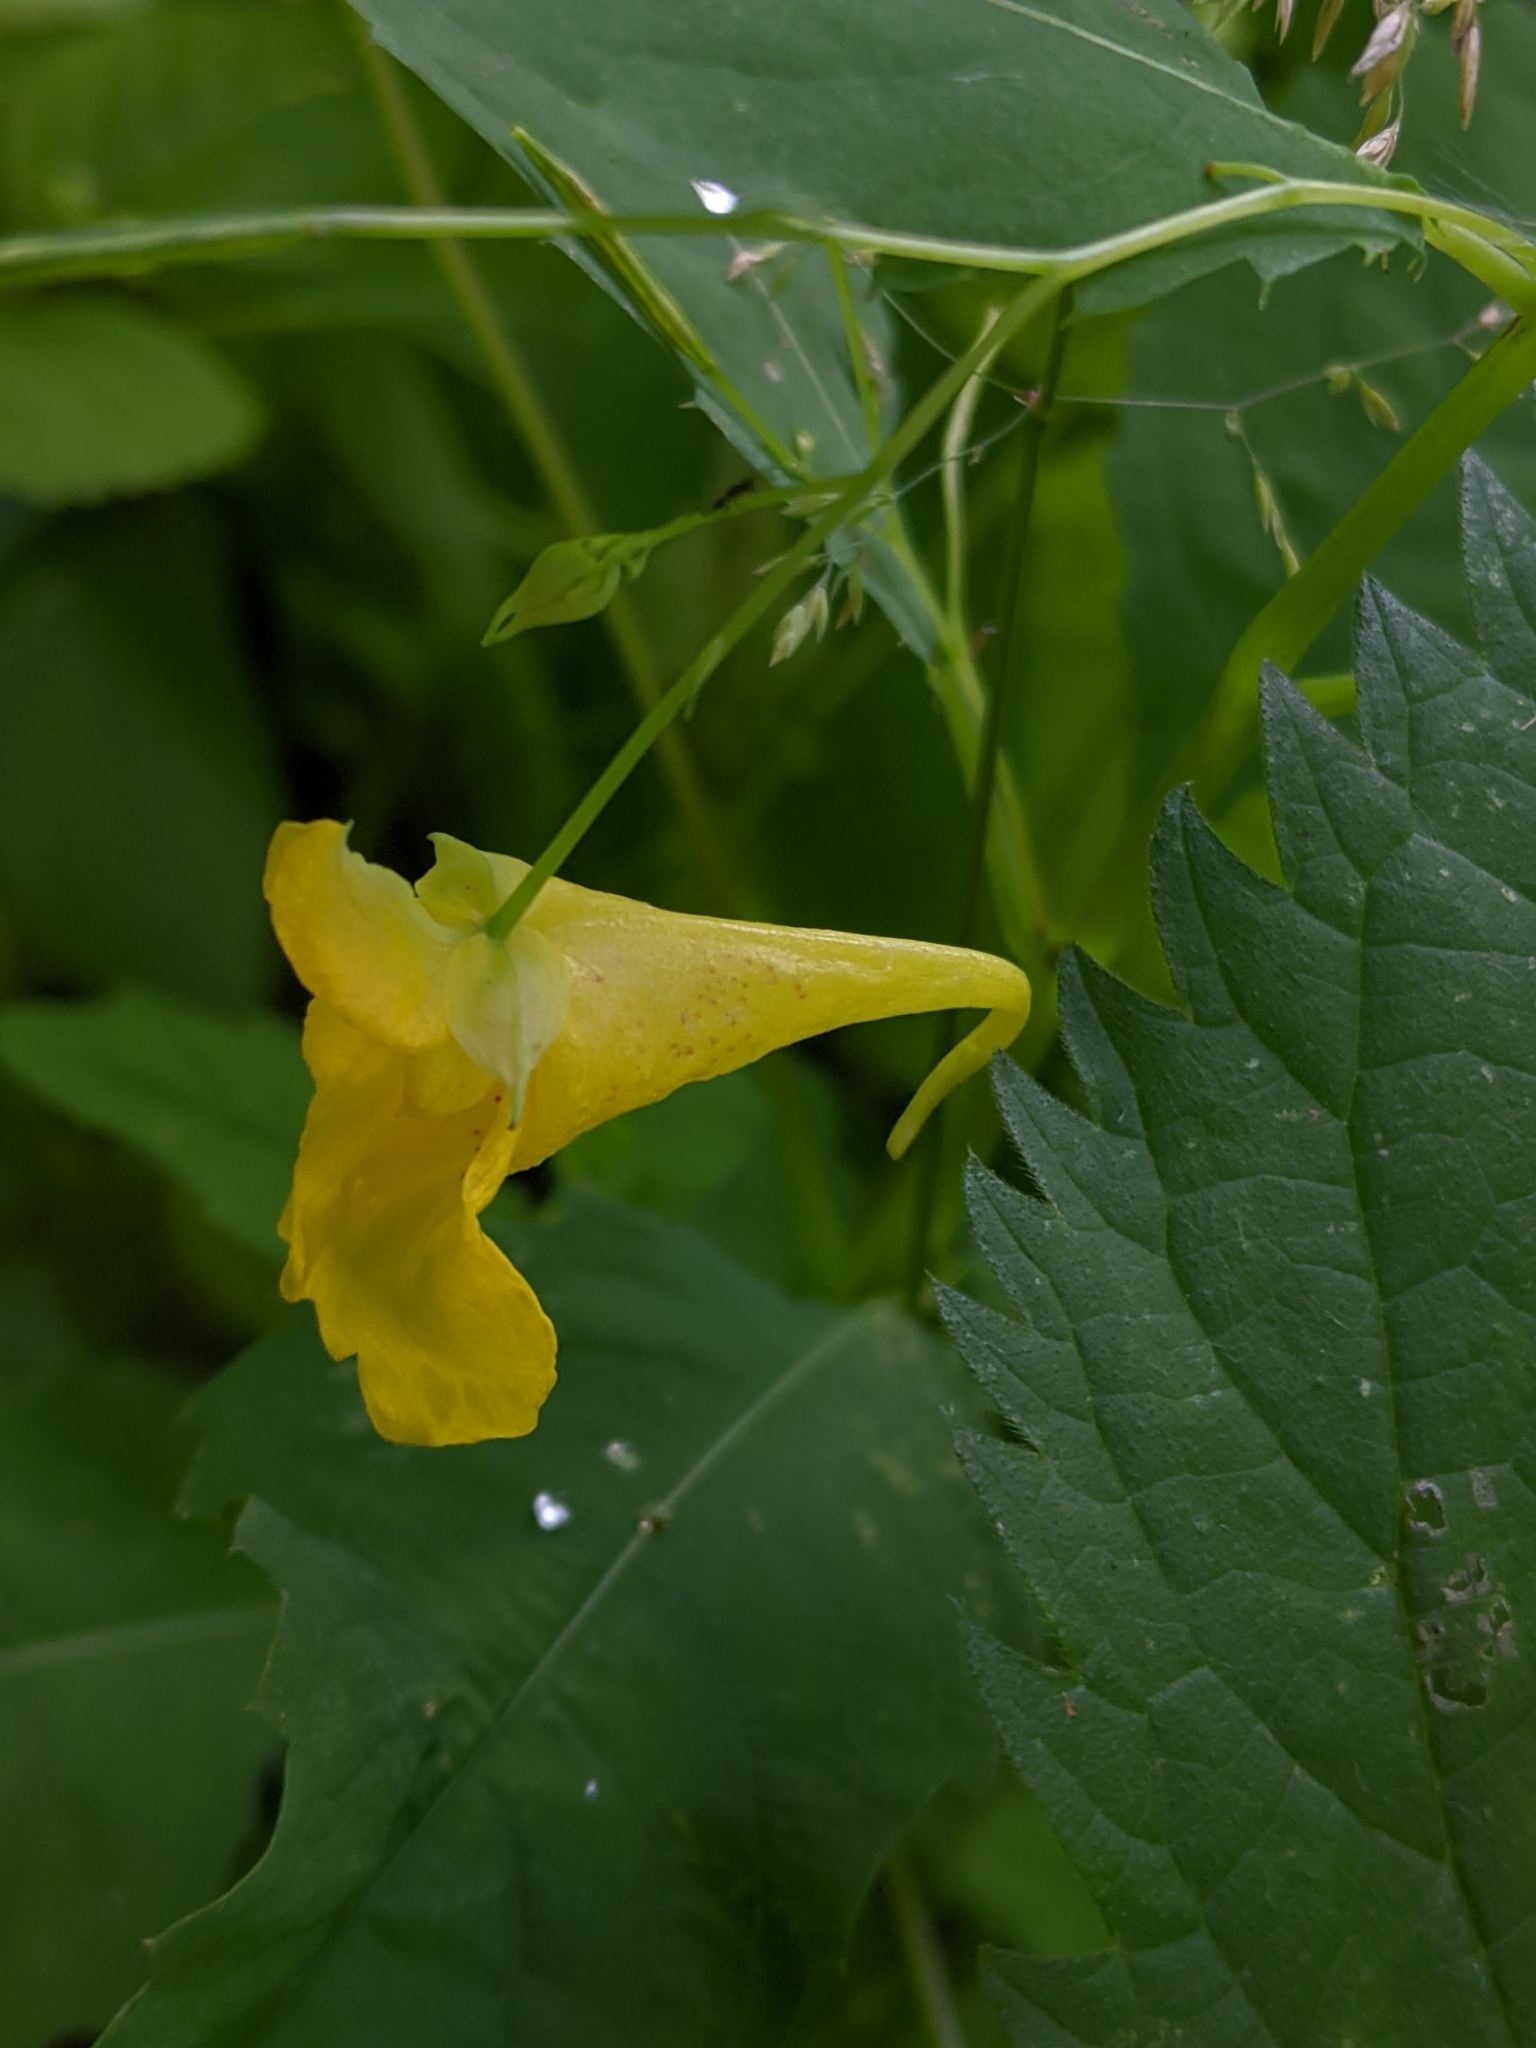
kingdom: Plantae
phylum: Tracheophyta
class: Magnoliopsida
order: Ericales
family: Balsaminaceae
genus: Impatiens
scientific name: Impatiens noli-tangere
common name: Touch-me-not balsam
